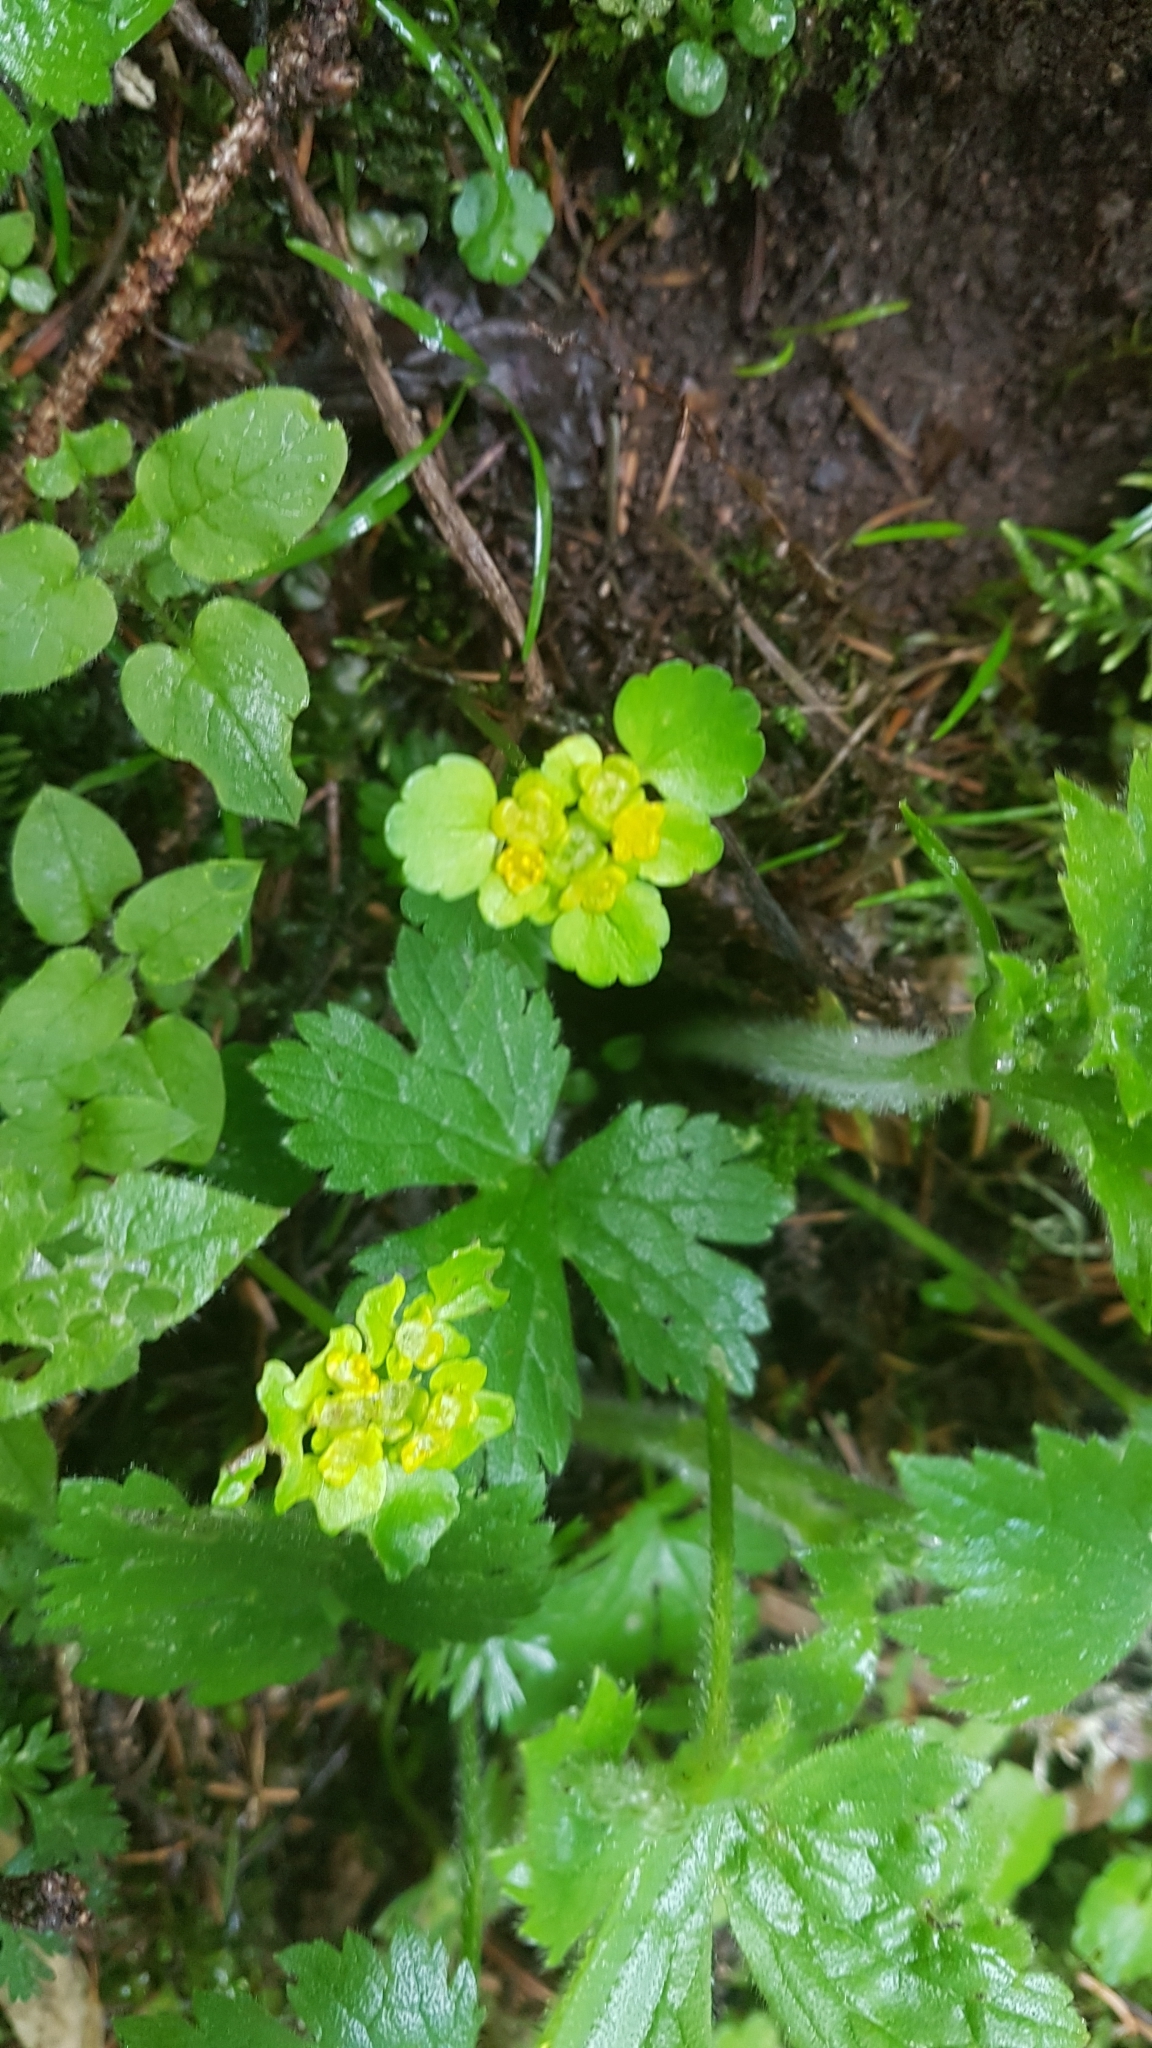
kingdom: Plantae
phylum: Tracheophyta
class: Magnoliopsida
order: Saxifragales
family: Saxifragaceae
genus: Chrysosplenium
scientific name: Chrysosplenium alternifolium
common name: Alternate-leaved golden-saxifrage
